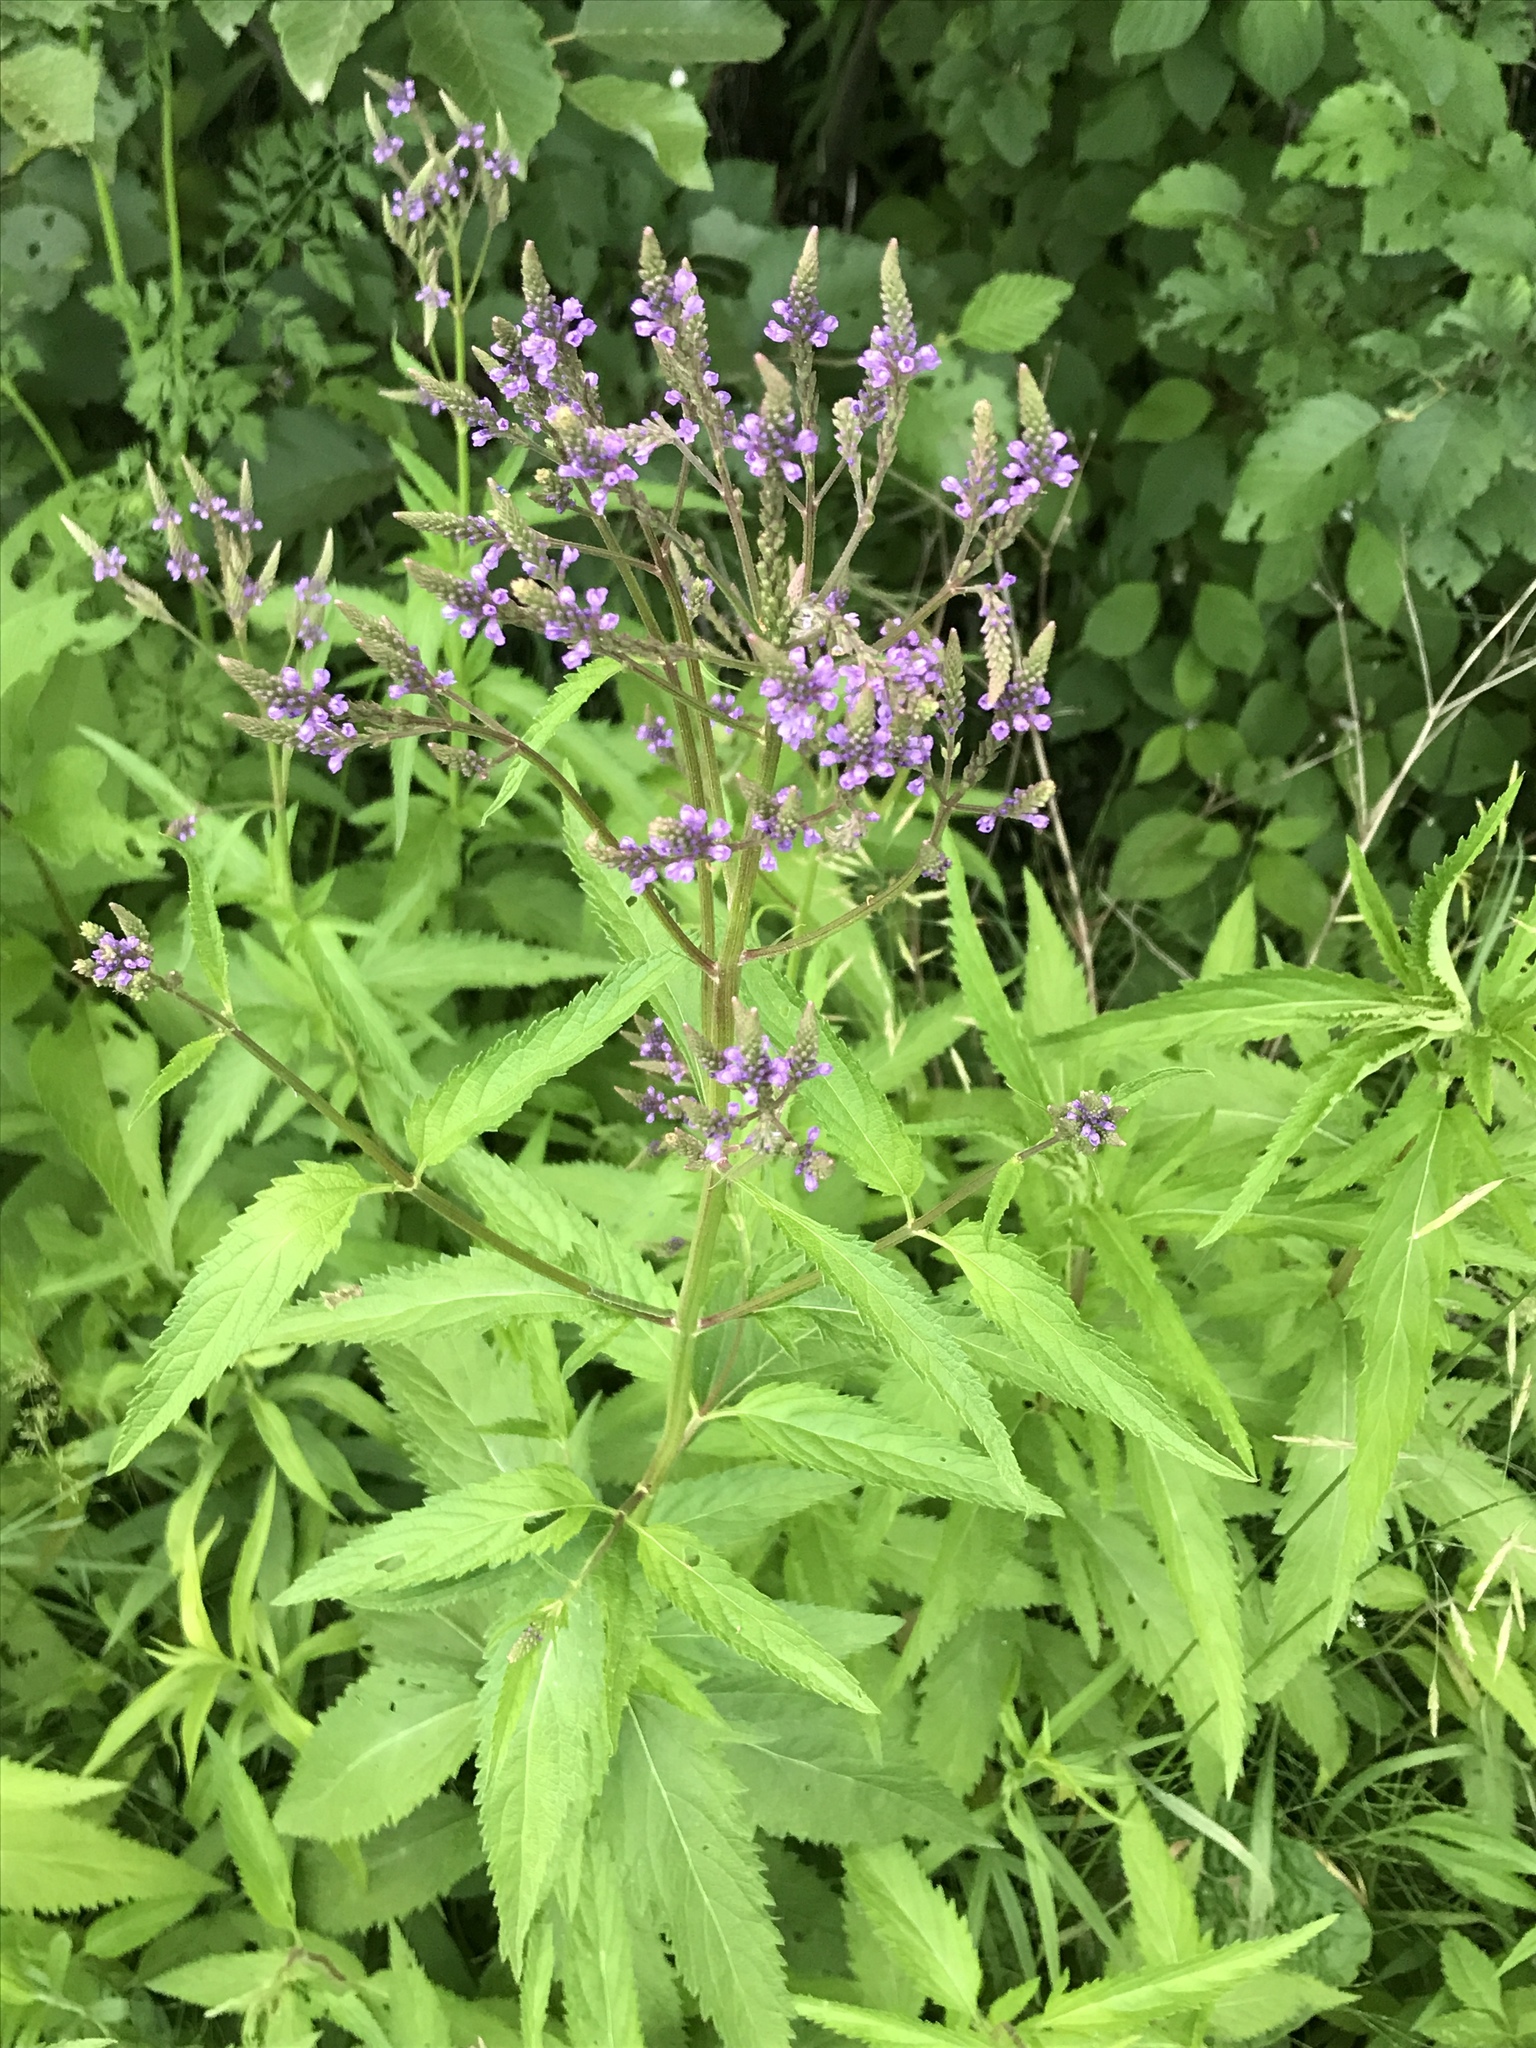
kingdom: Plantae
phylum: Tracheophyta
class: Magnoliopsida
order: Lamiales
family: Verbenaceae
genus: Verbena
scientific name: Verbena hastata
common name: American blue vervain
